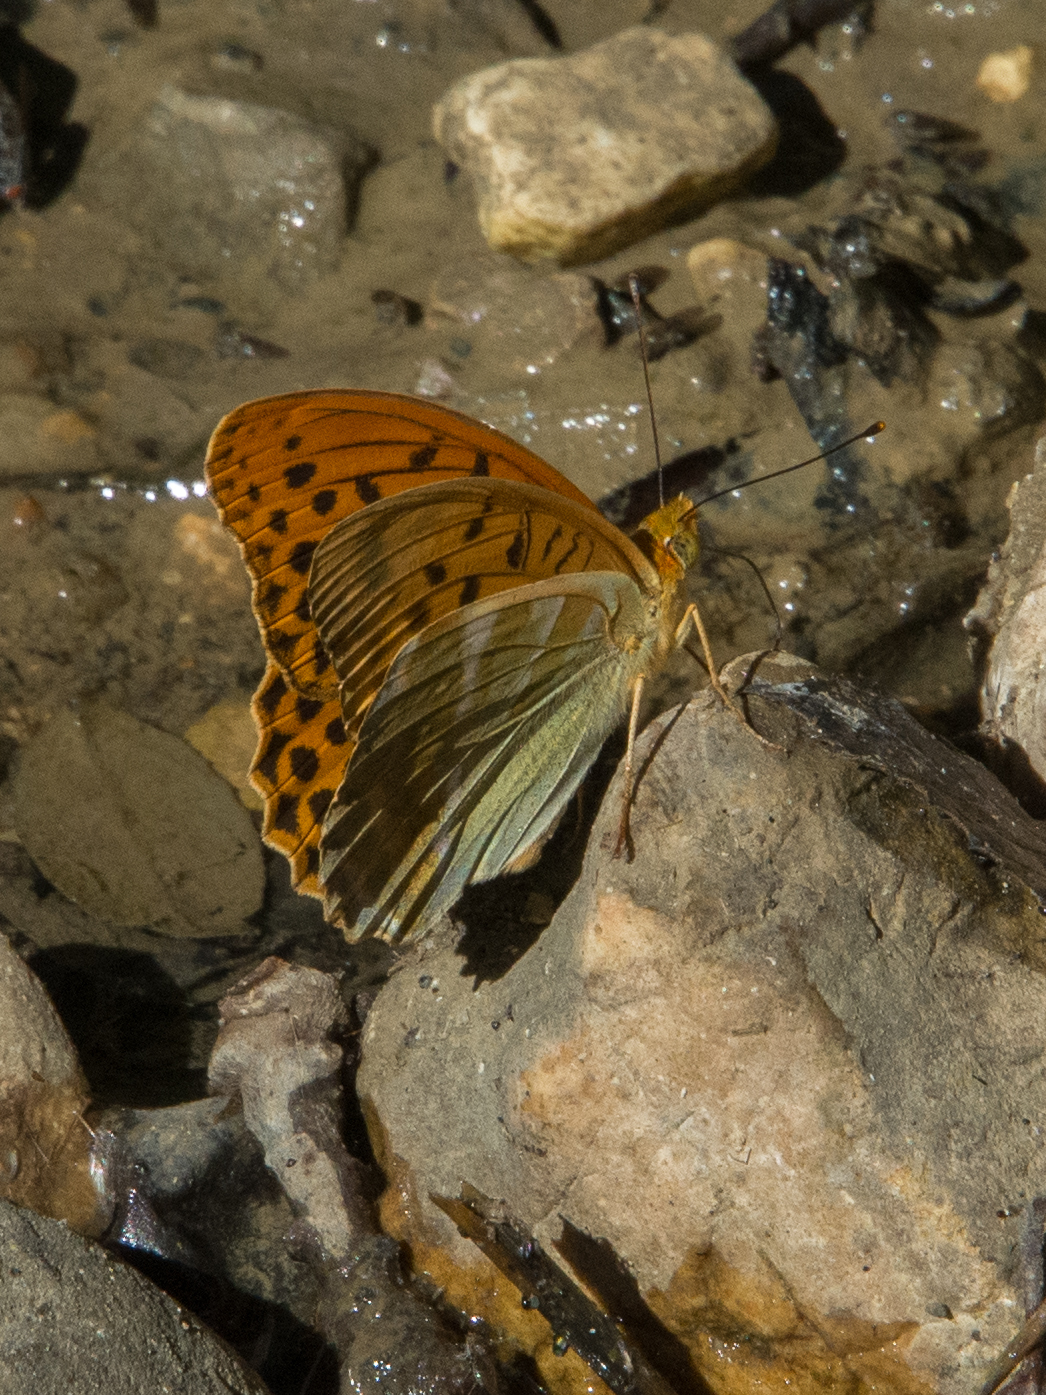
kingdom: Animalia
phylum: Arthropoda
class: Insecta
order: Lepidoptera
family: Nymphalidae
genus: Argynnis
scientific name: Argynnis paphia
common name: Silver-washed fritillary
